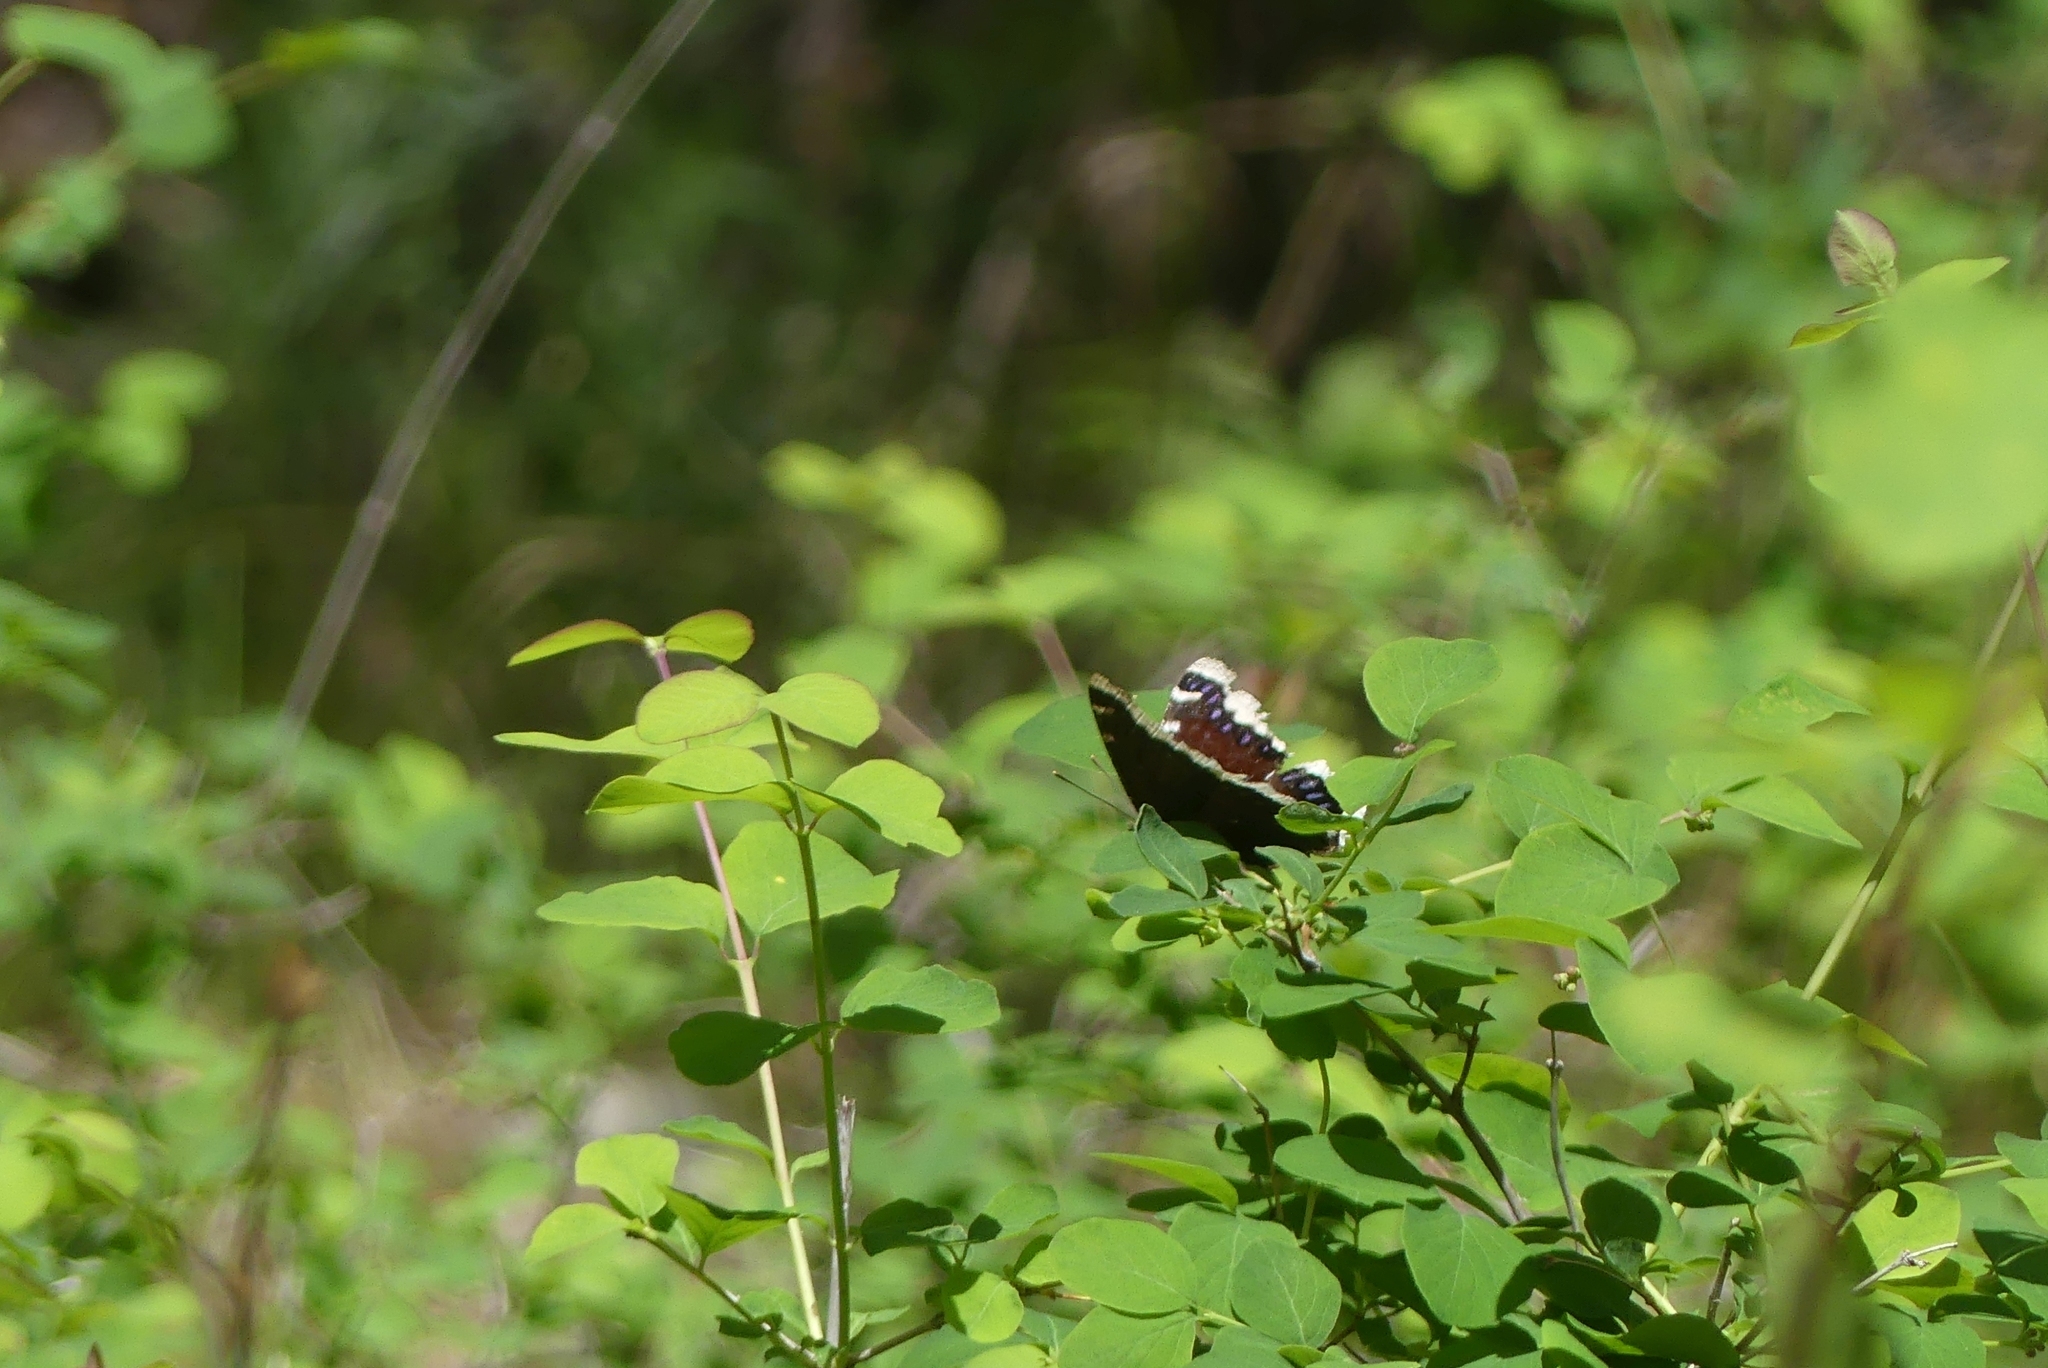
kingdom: Animalia
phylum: Arthropoda
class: Insecta
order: Lepidoptera
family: Nymphalidae
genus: Nymphalis
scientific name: Nymphalis antiopa
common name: Camberwell beauty
